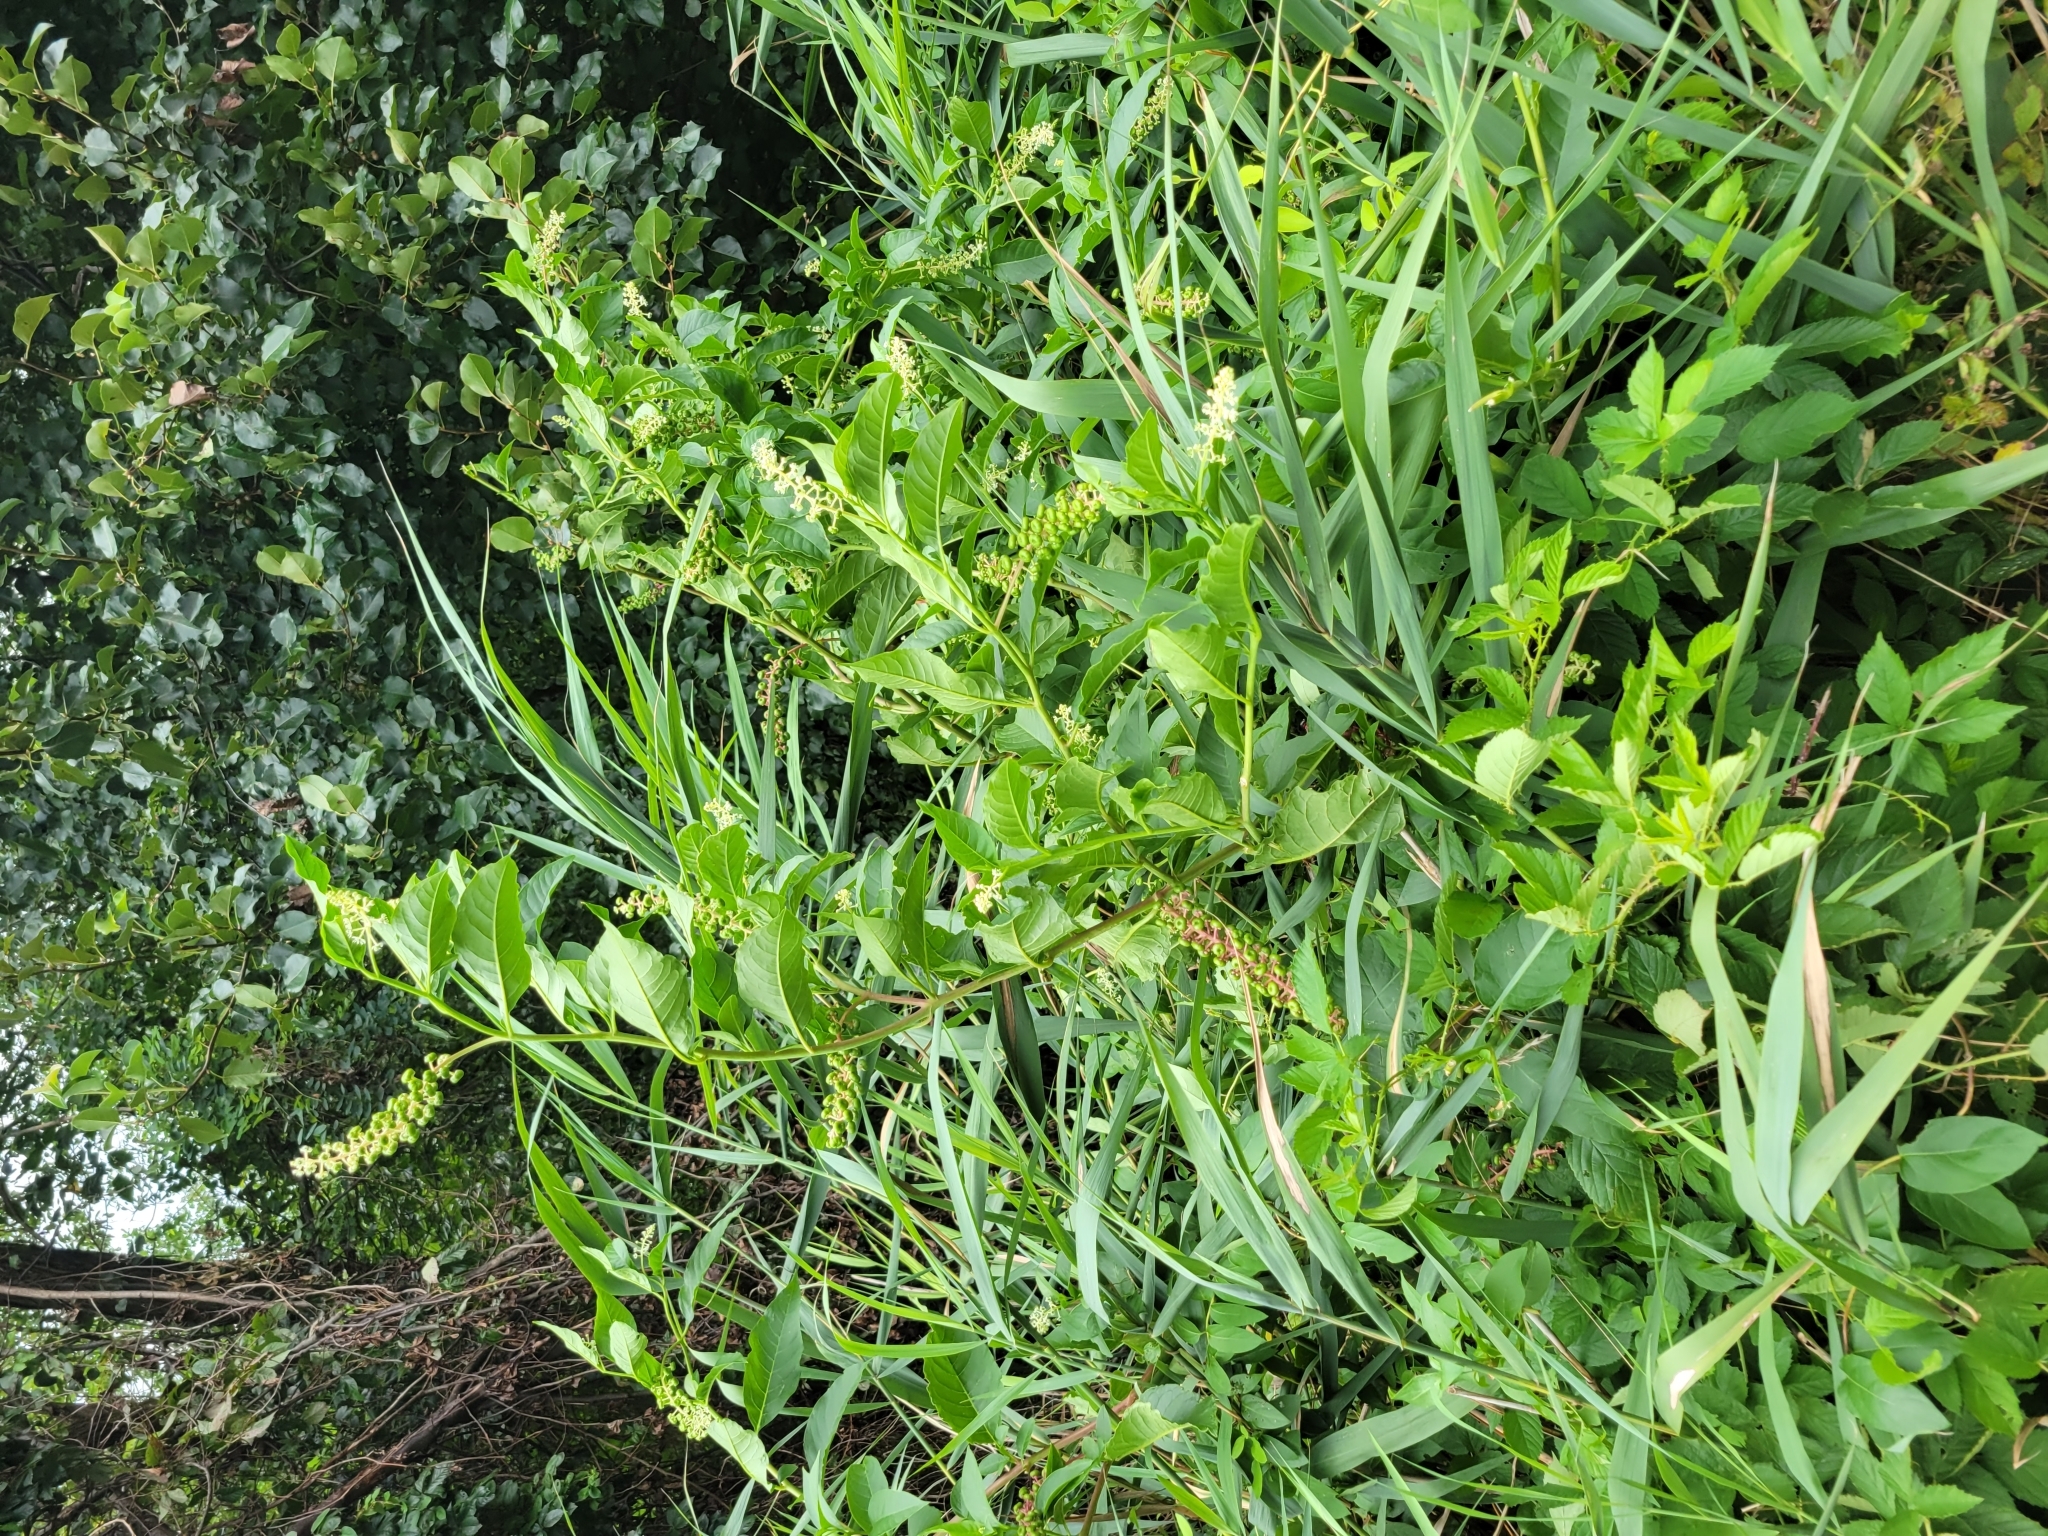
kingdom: Plantae
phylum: Tracheophyta
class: Magnoliopsida
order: Caryophyllales
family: Phytolaccaceae
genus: Phytolacca
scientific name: Phytolacca americana
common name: American pokeweed
